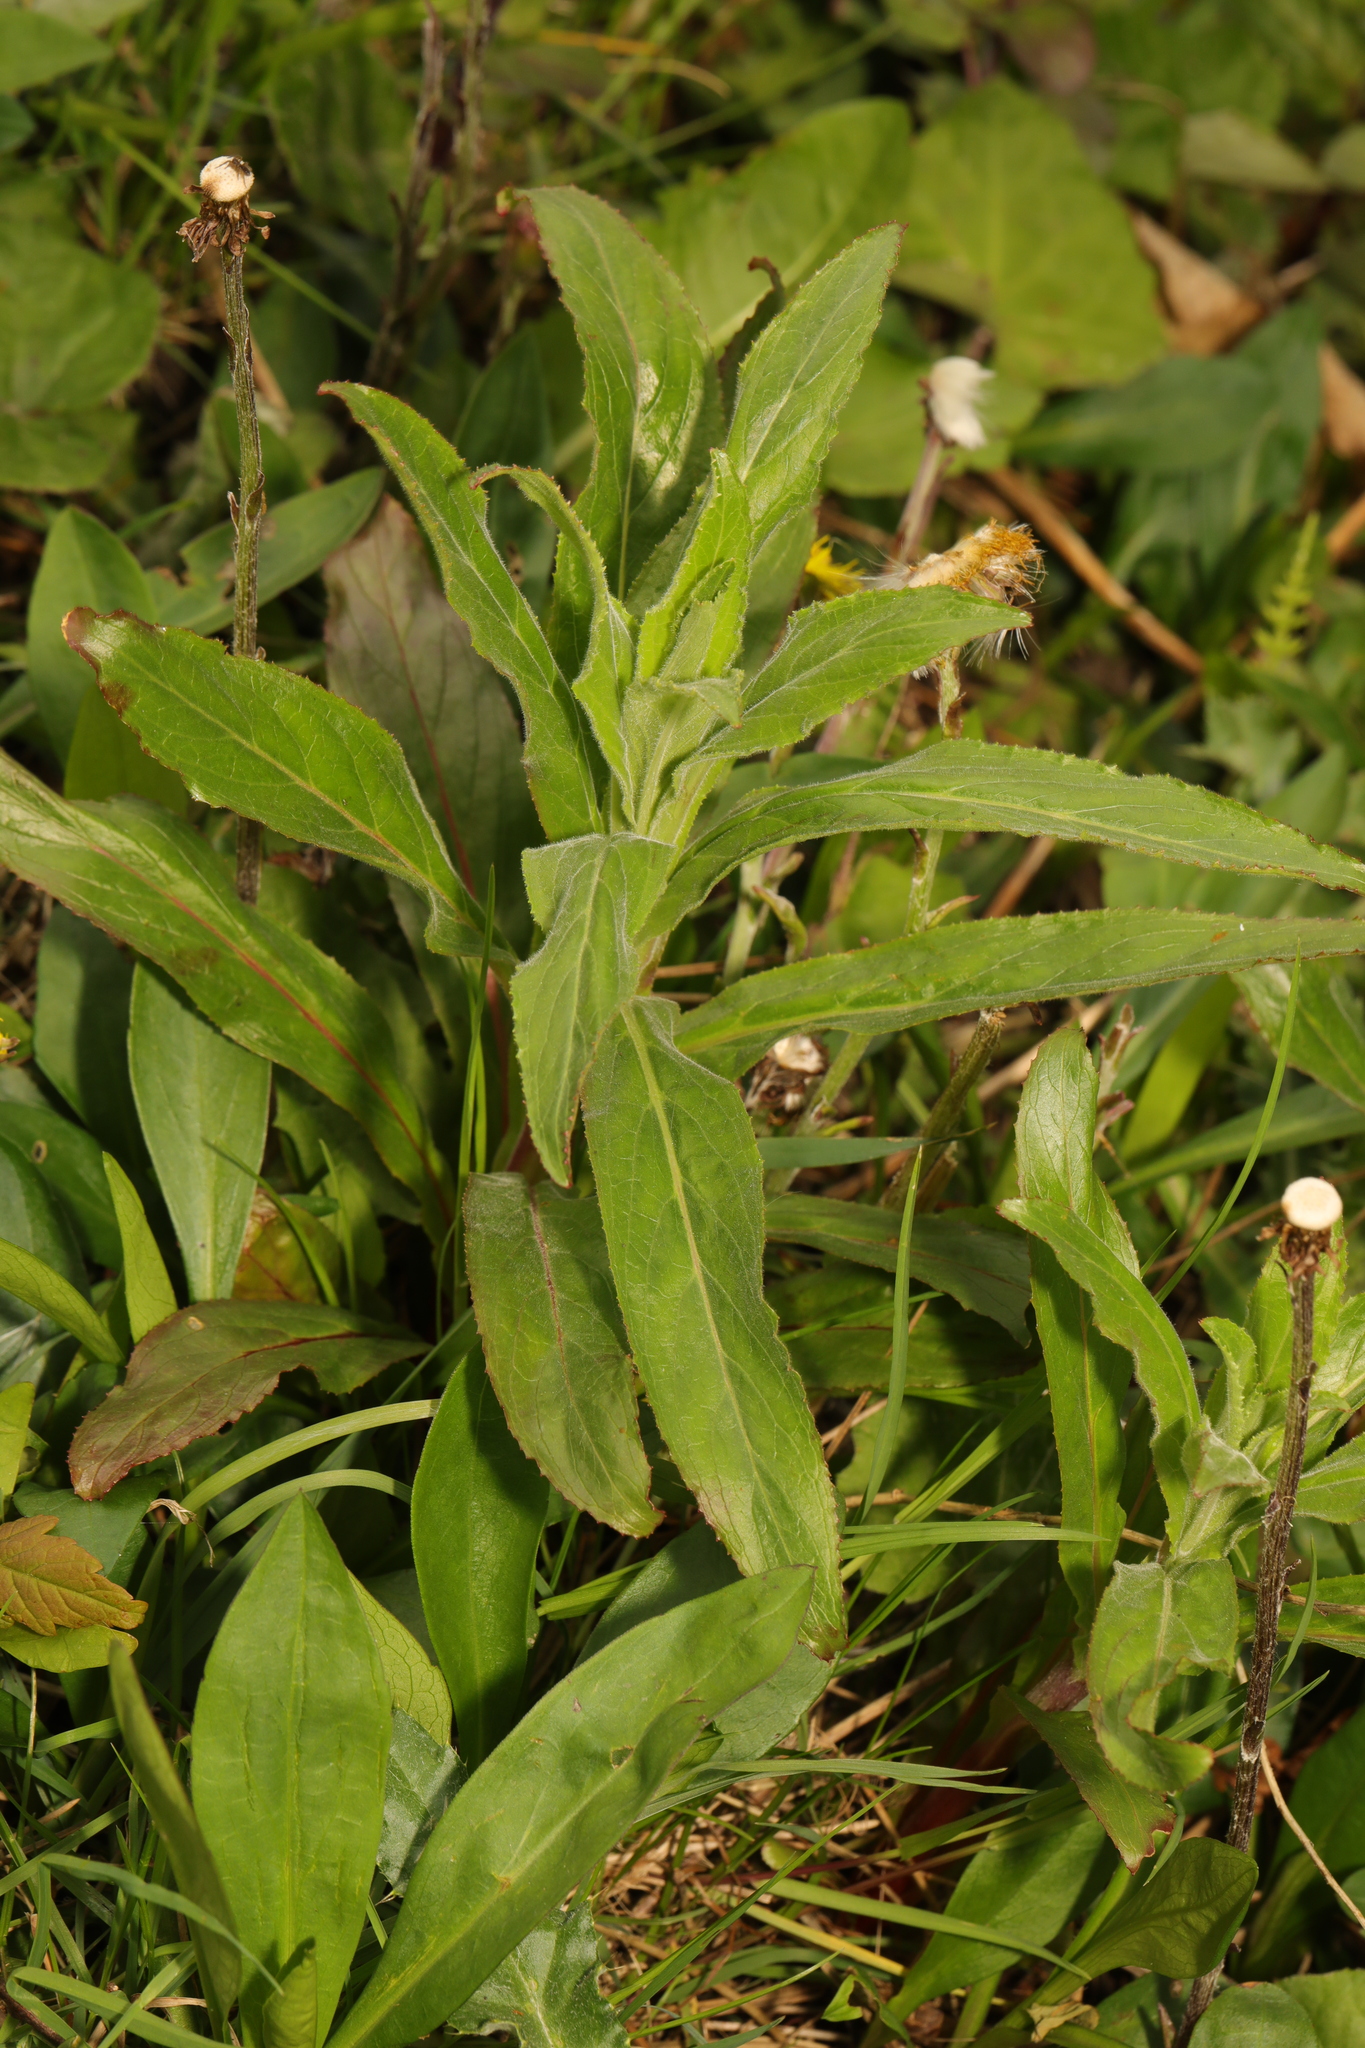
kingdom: Plantae
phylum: Tracheophyta
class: Magnoliopsida
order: Myrtales
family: Onagraceae
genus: Epilobium
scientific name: Epilobium hirsutum
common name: Great willowherb
